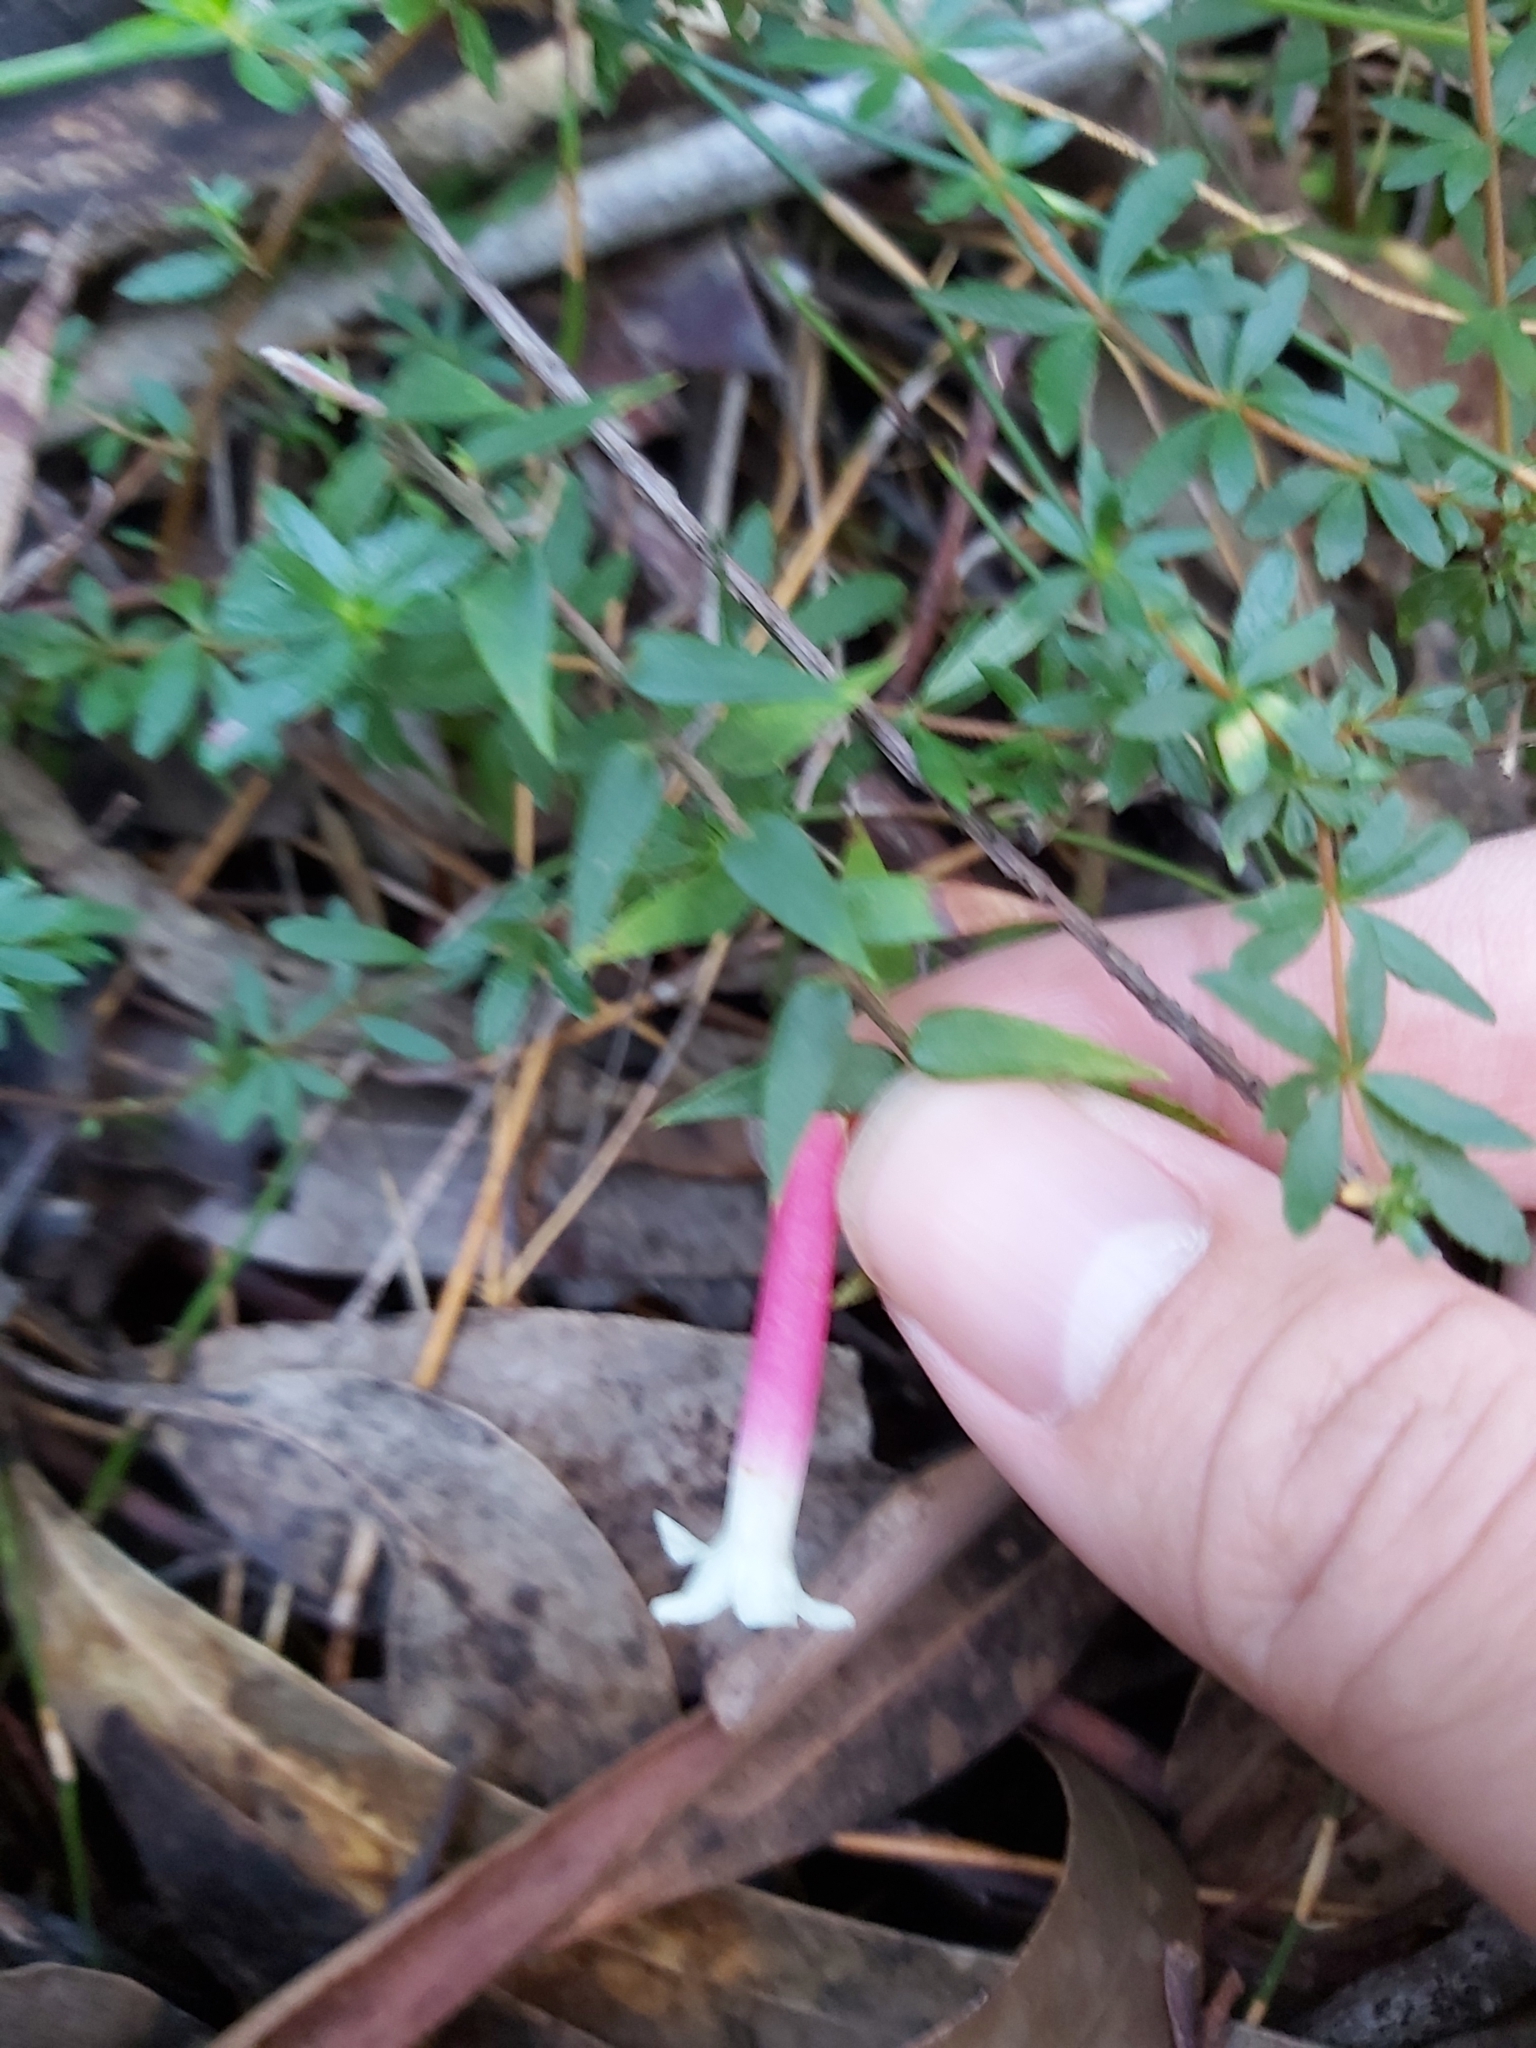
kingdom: Plantae
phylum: Tracheophyta
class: Magnoliopsida
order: Ericales
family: Ericaceae
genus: Epacris
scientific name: Epacris longiflora
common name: Fuchsia-heath
